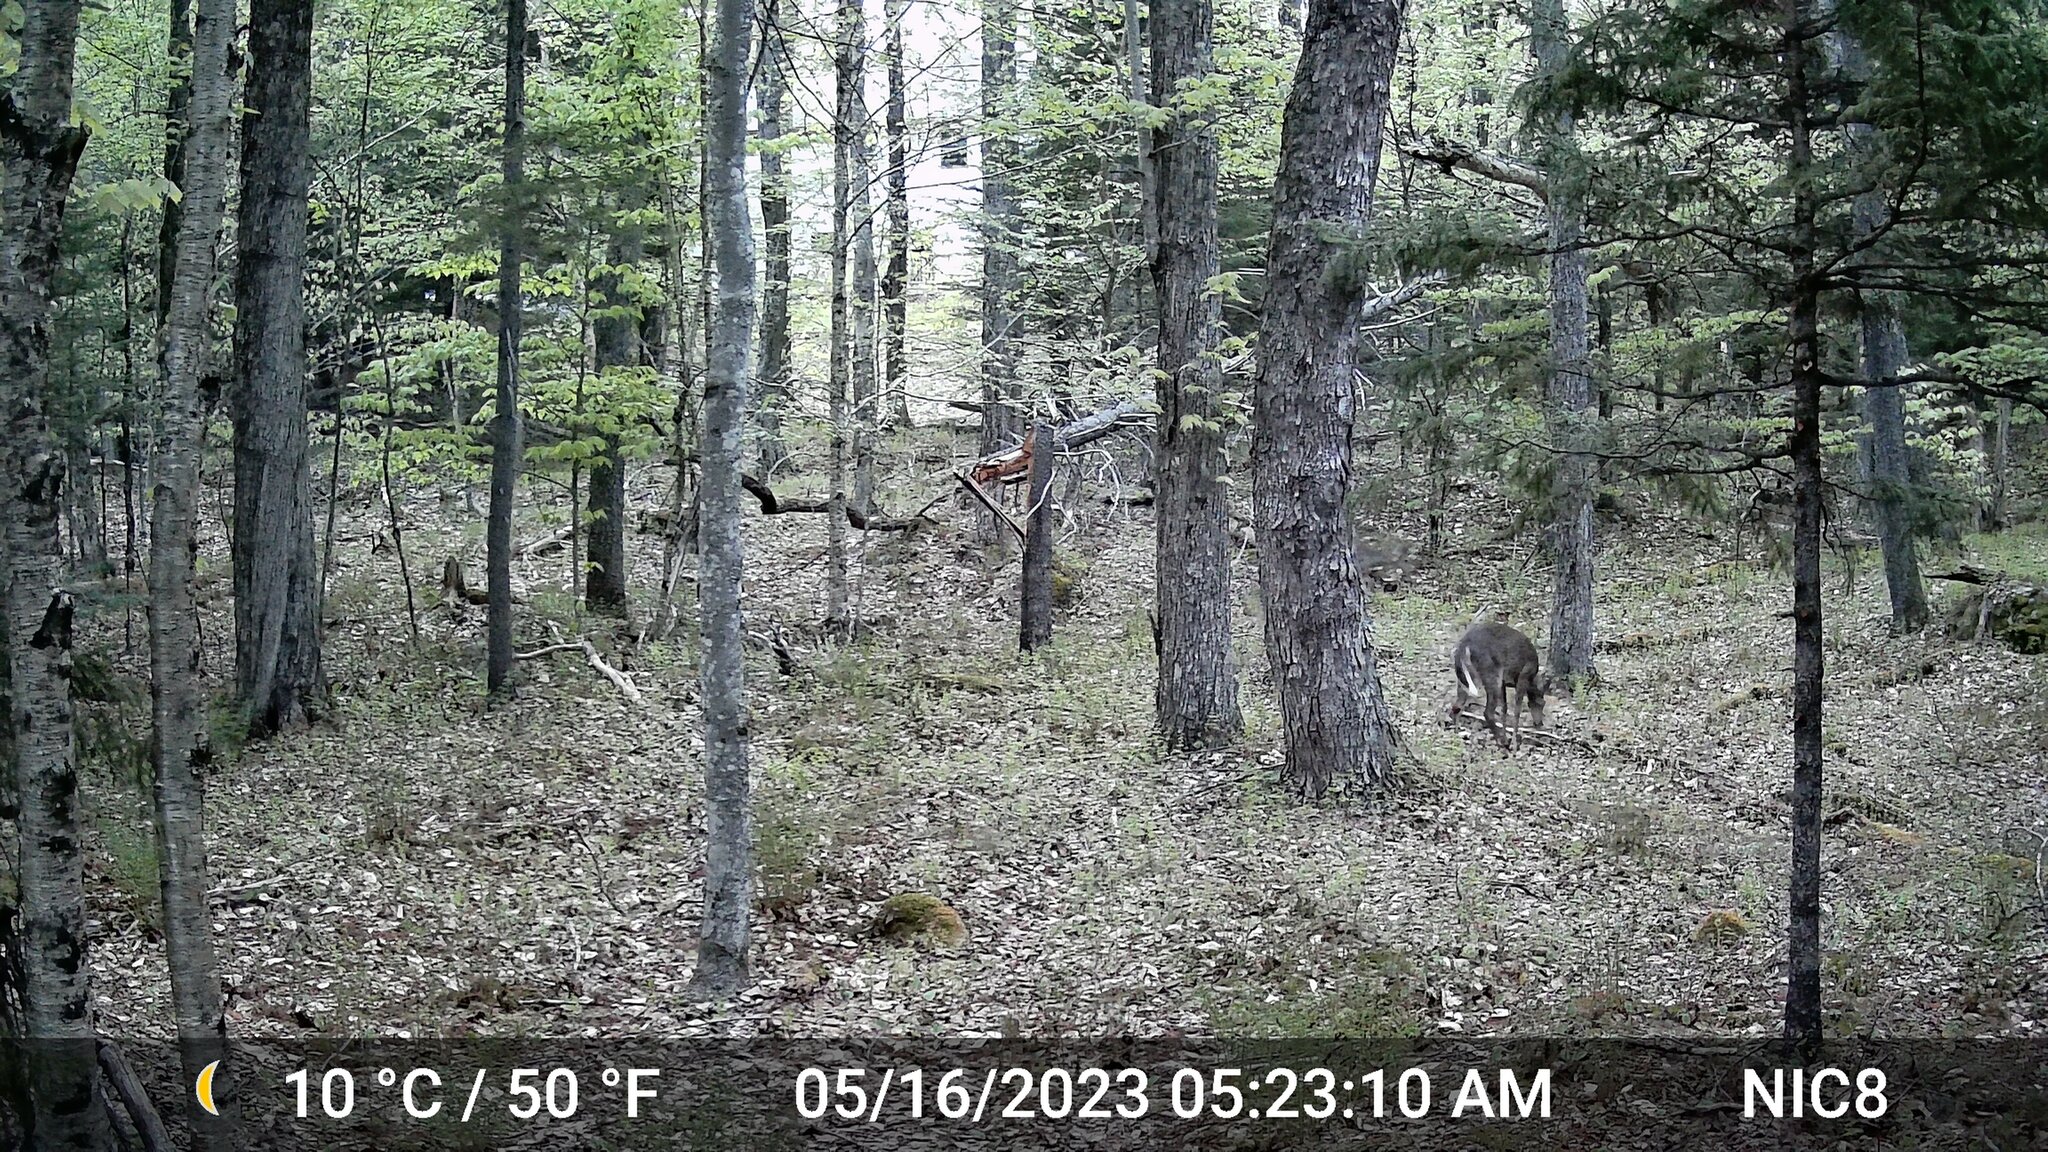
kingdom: Animalia
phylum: Chordata
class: Mammalia
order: Artiodactyla
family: Cervidae
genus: Odocoileus
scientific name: Odocoileus virginianus
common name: White-tailed deer
